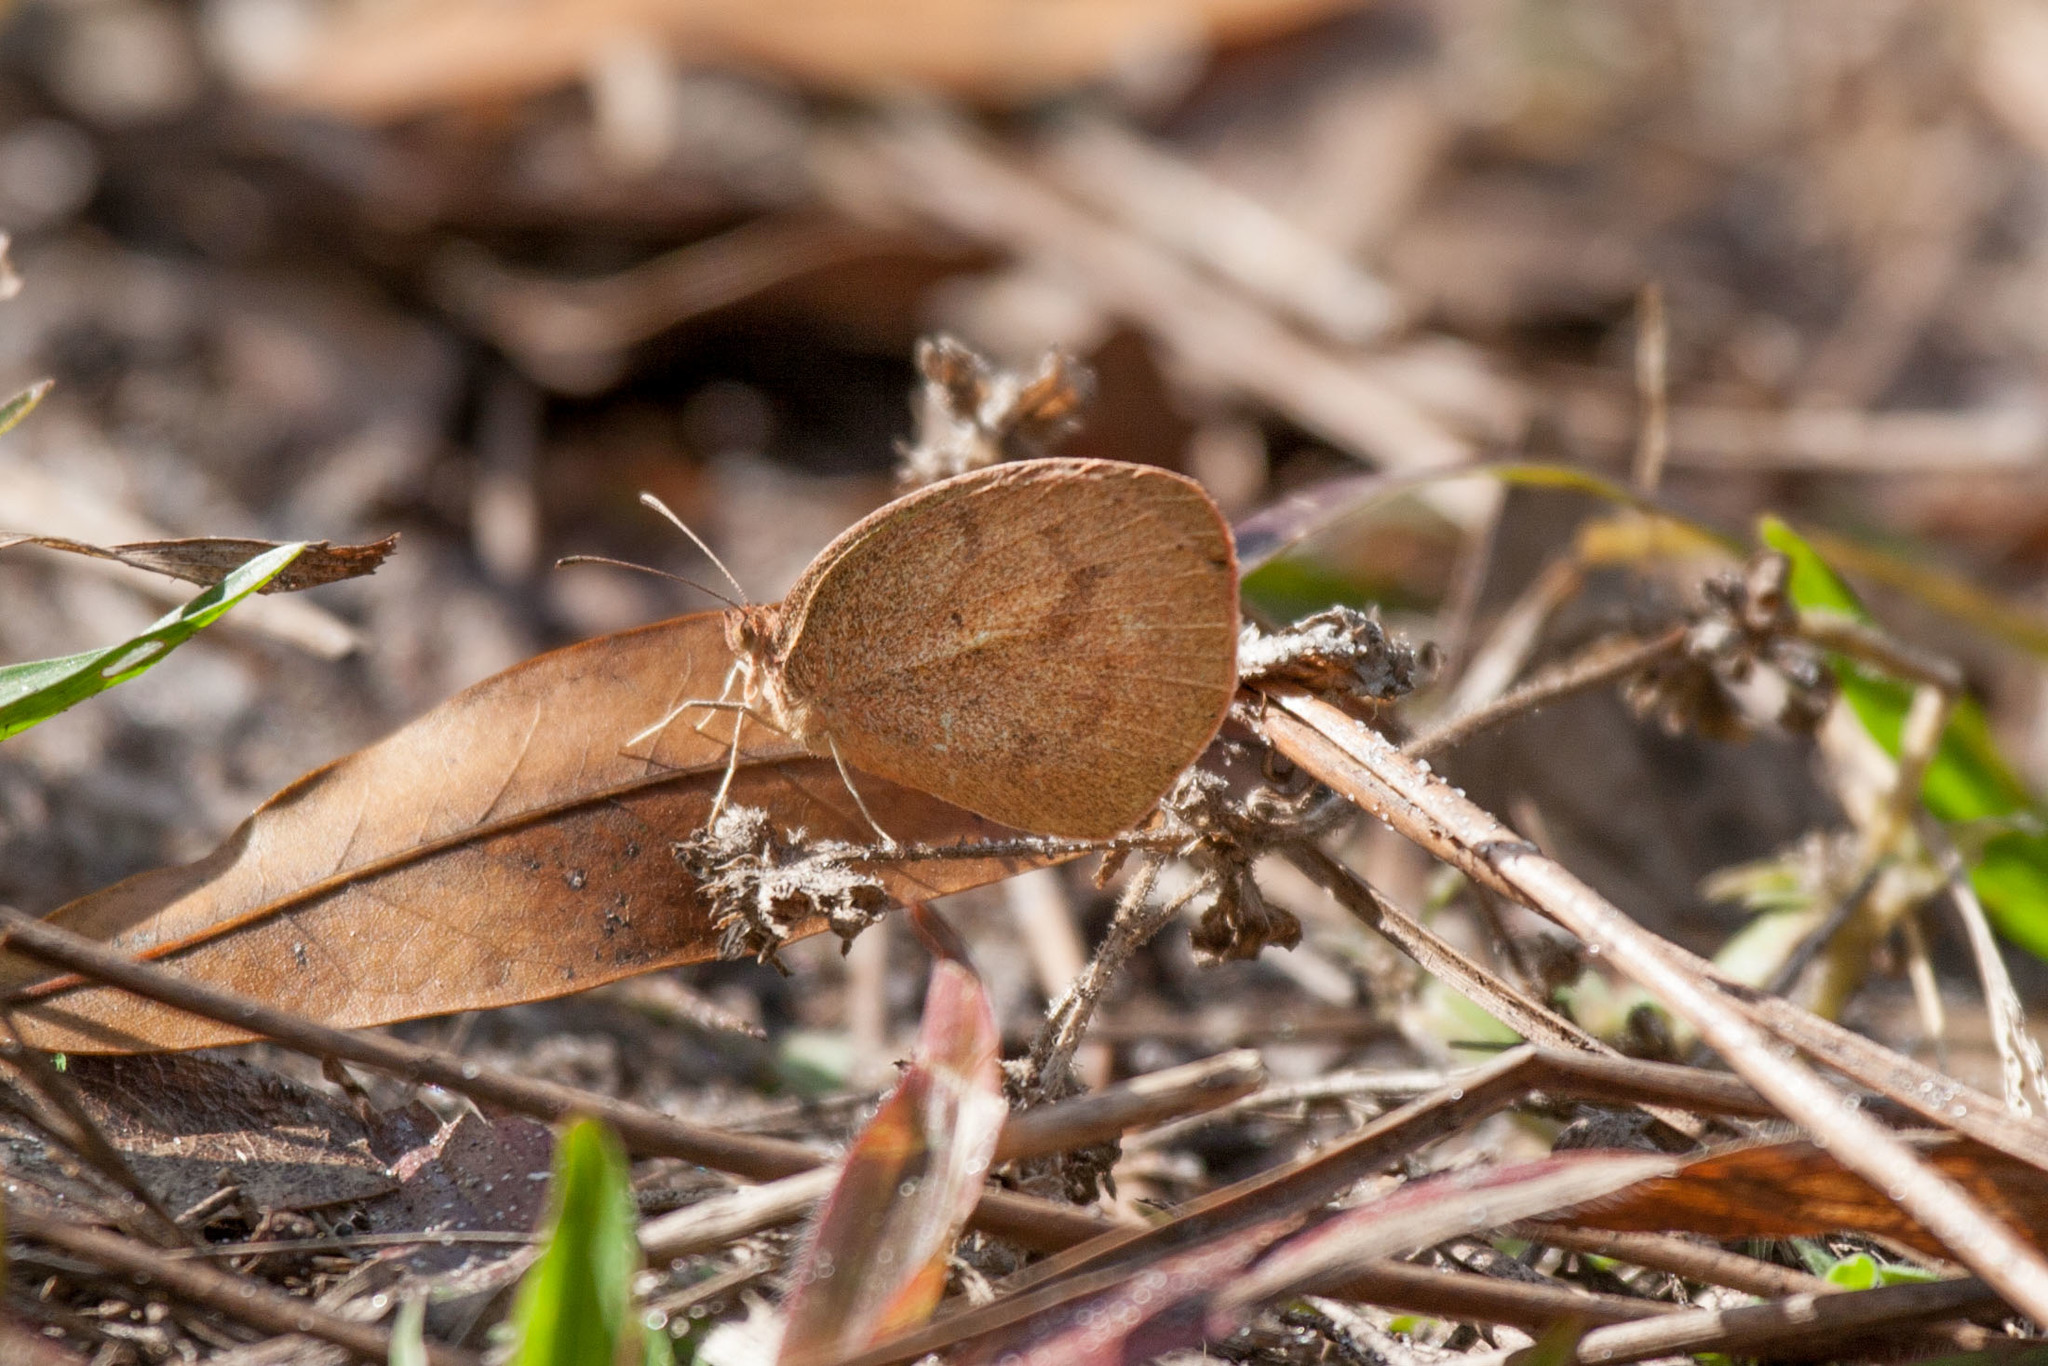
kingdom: Animalia
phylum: Arthropoda
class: Insecta
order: Lepidoptera
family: Pieridae
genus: Eurema
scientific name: Eurema daira
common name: Barred sulphur
